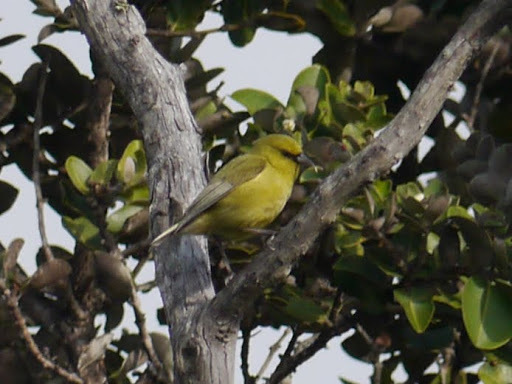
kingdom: Animalia
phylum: Chordata
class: Aves
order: Passeriformes
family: Fringillidae
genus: Chlorodrepanis
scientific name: Chlorodrepanis virens
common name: Hawaii amakihi
